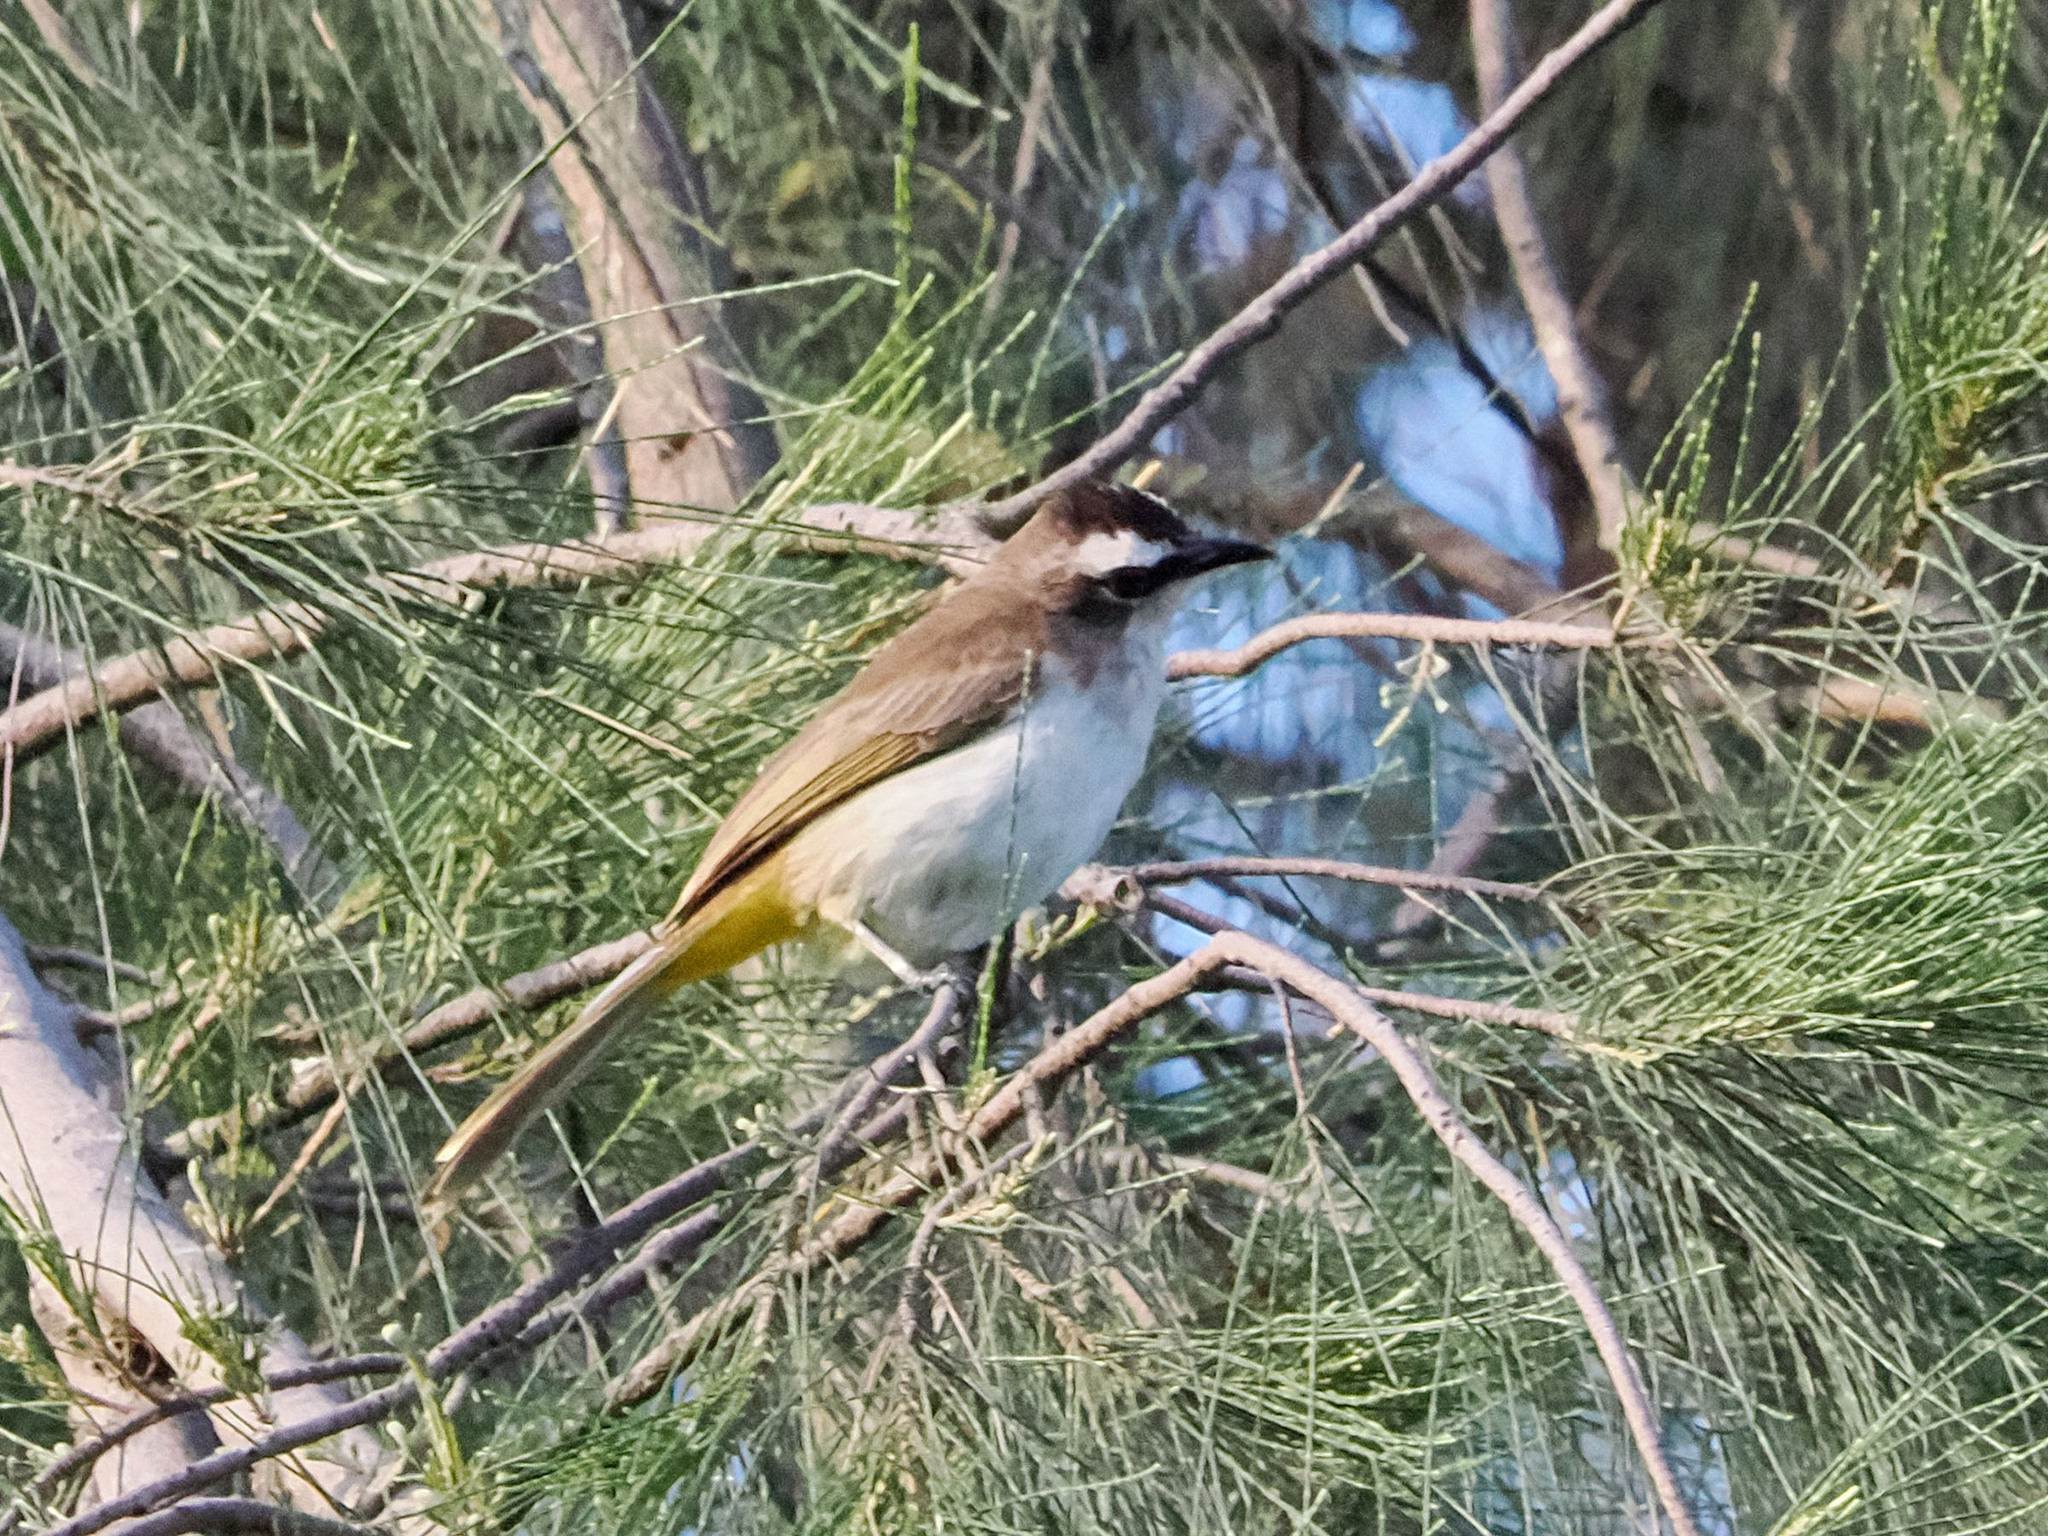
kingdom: Animalia
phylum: Chordata
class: Aves
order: Passeriformes
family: Pycnonotidae
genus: Pycnonotus
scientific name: Pycnonotus goiavier
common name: Yellow-vented bulbul
